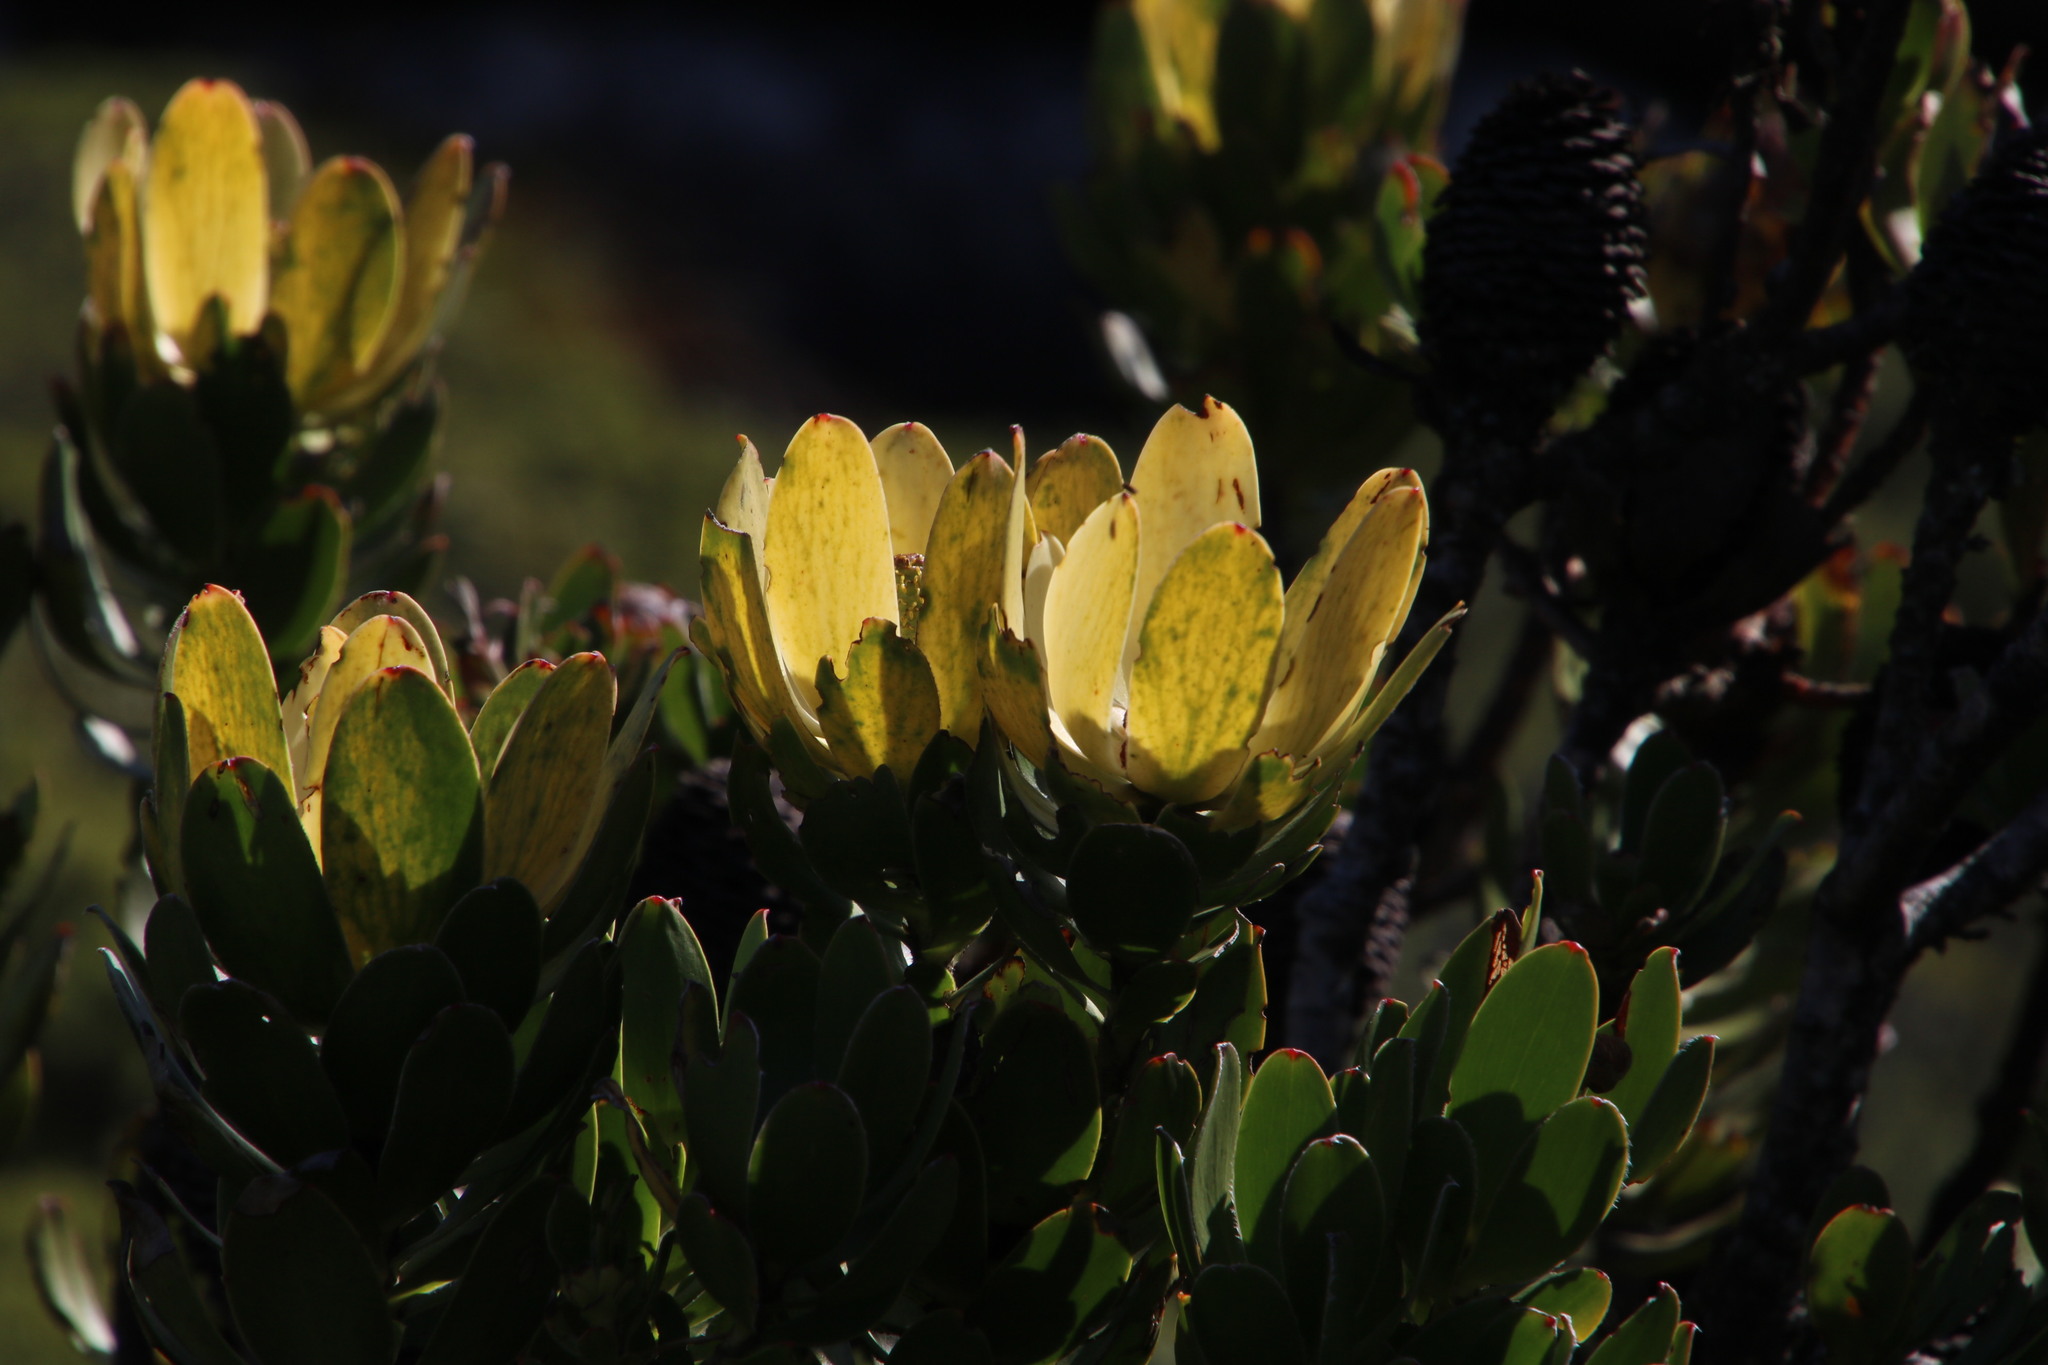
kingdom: Plantae
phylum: Tracheophyta
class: Magnoliopsida
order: Proteales
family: Proteaceae
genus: Leucadendron
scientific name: Leucadendron strobilinum
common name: Mountain rose
